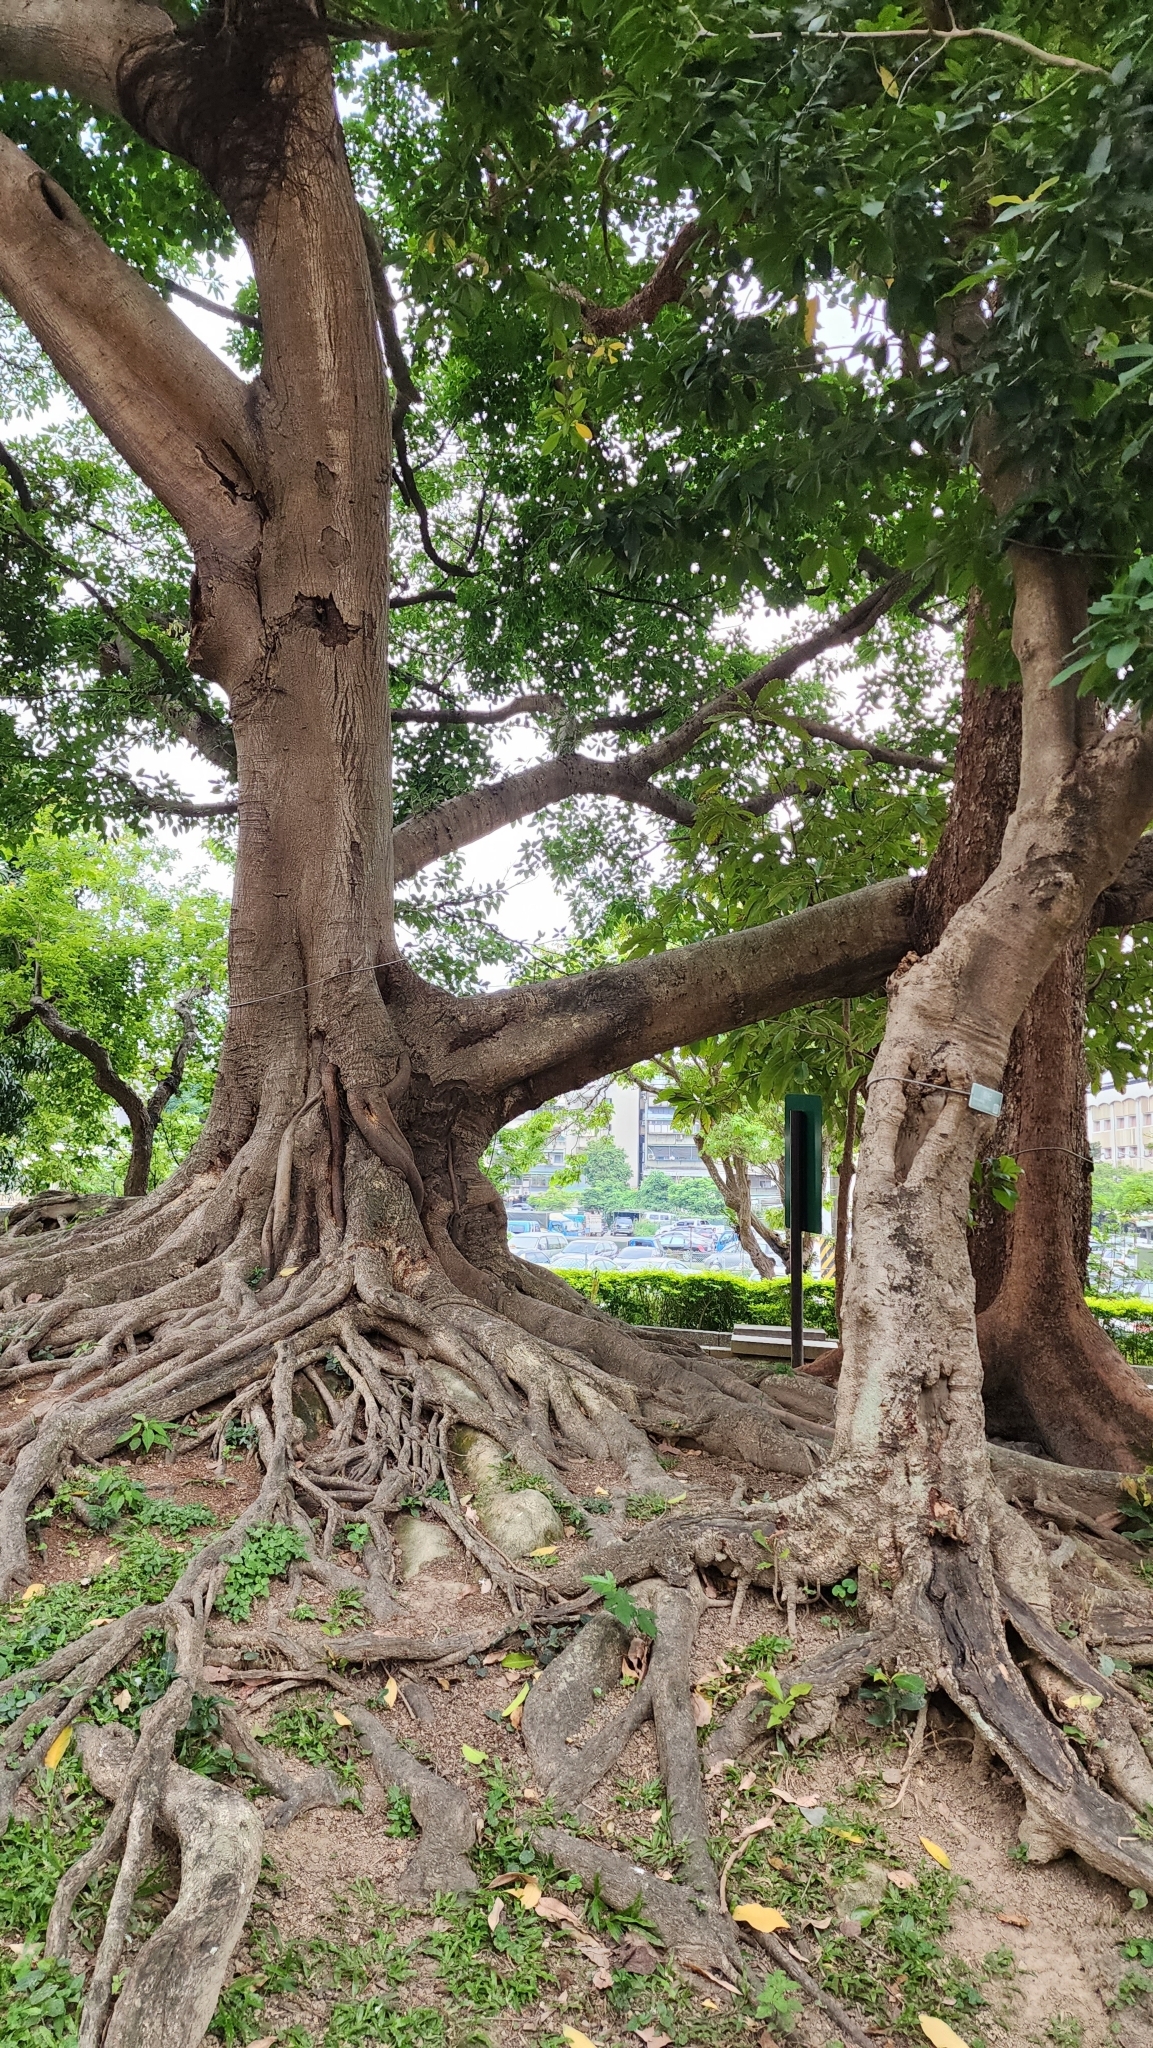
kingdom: Plantae
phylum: Tracheophyta
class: Magnoliopsida
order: Ericales
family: Primulaceae
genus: Ardisia
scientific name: Ardisia sieboldii
